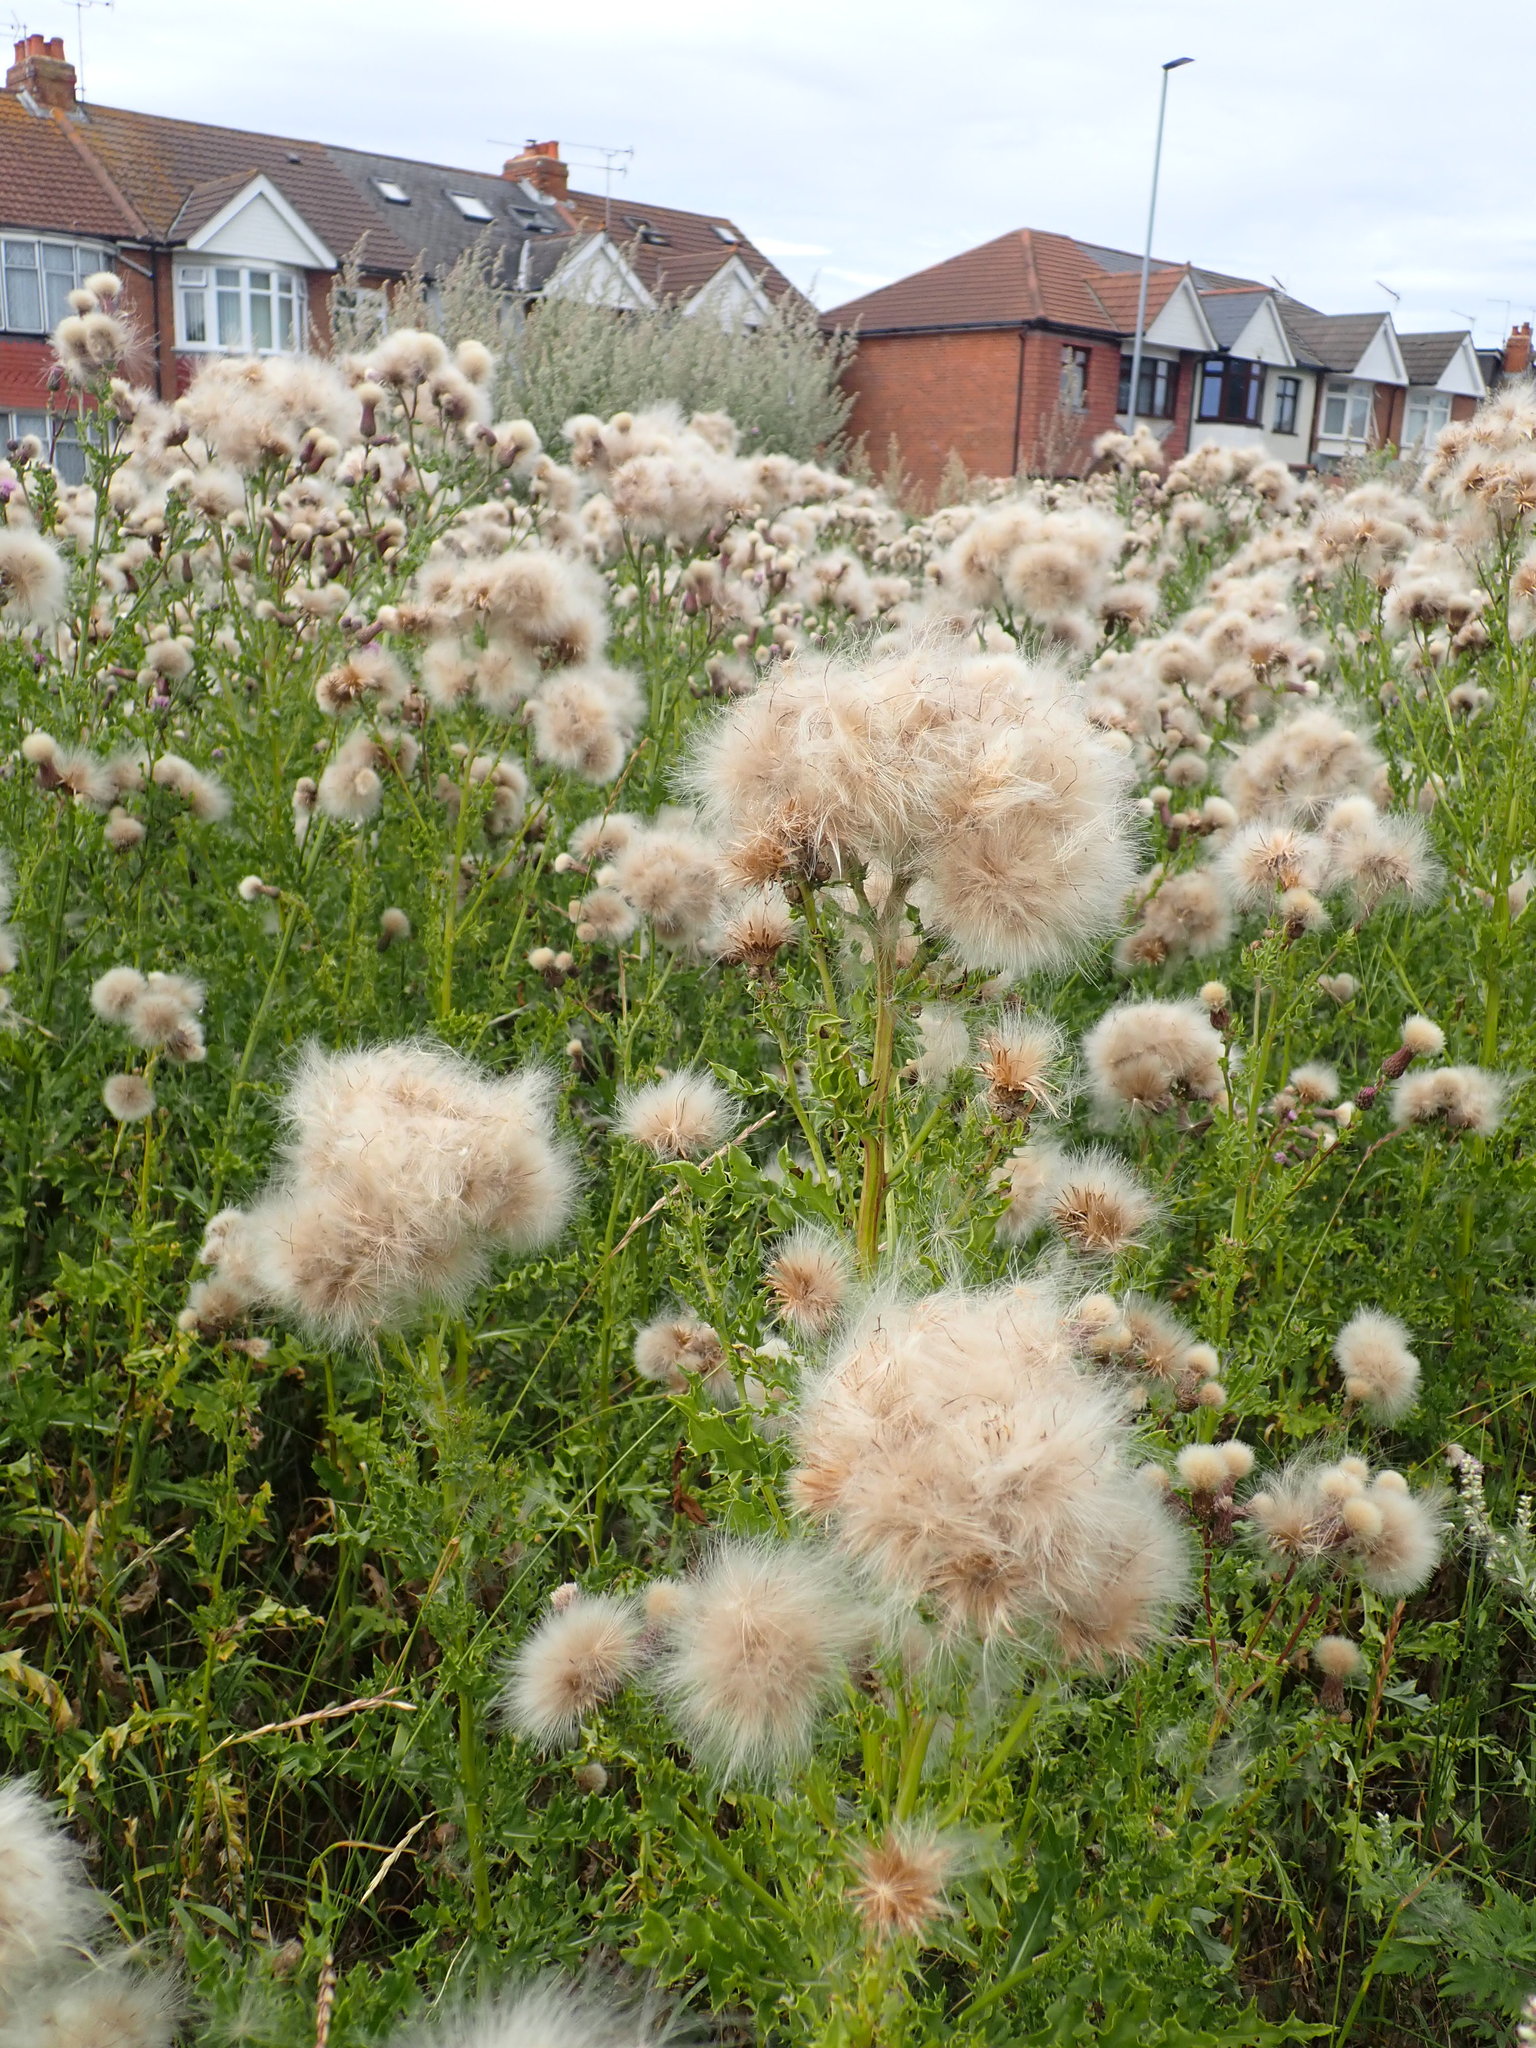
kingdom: Plantae
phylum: Tracheophyta
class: Magnoliopsida
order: Asterales
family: Asteraceae
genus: Cirsium
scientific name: Cirsium arvense
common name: Creeping thistle
